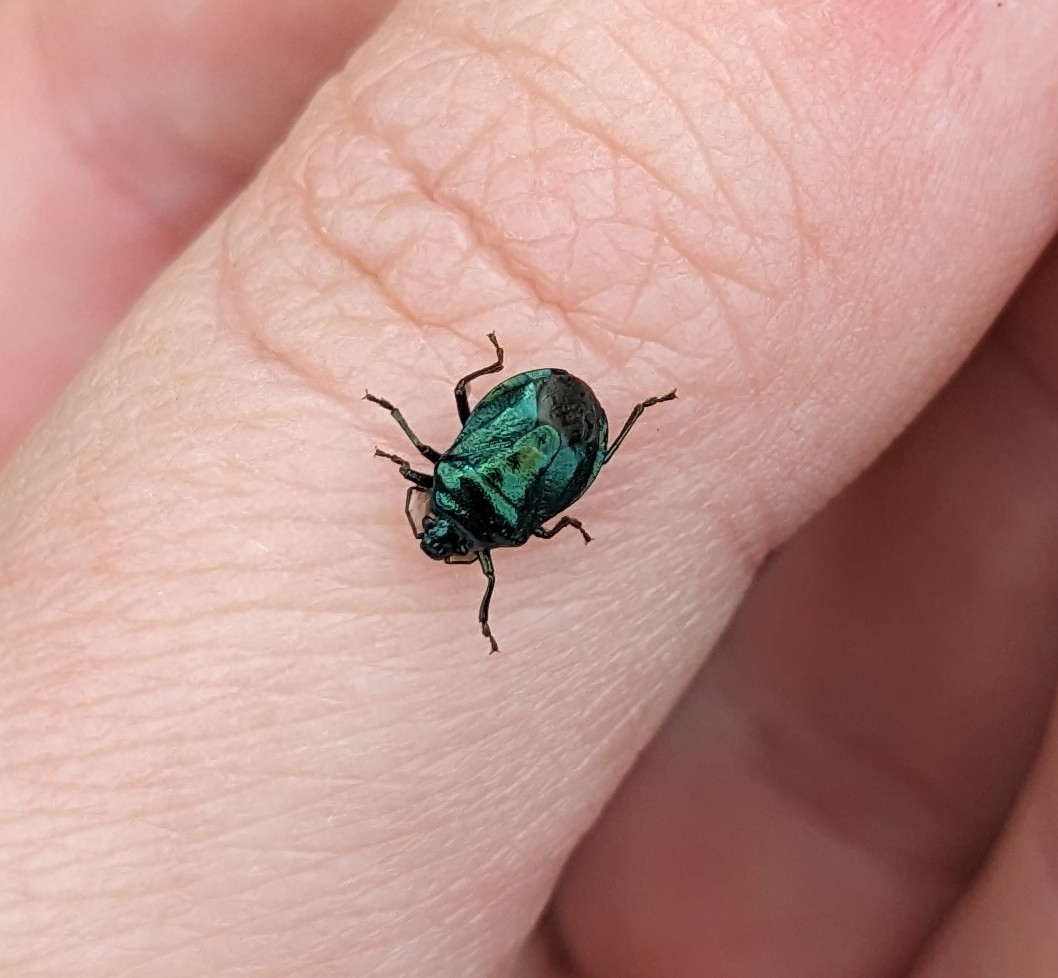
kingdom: Animalia
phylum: Arthropoda
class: Insecta
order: Hemiptera
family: Pentatomidae
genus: Zicrona
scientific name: Zicrona caerulea
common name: Blue shieldbug
